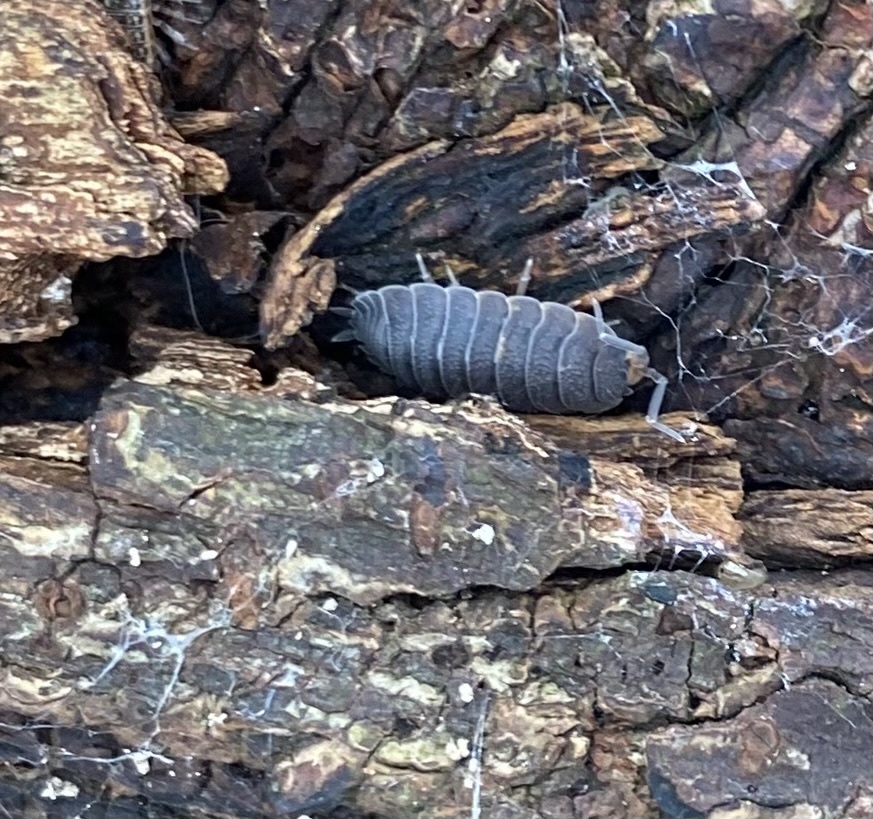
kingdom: Animalia
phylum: Arthropoda
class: Malacostraca
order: Isopoda
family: Porcellionidae
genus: Porcellio
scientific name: Porcellio scaber
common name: Common rough woodlouse
